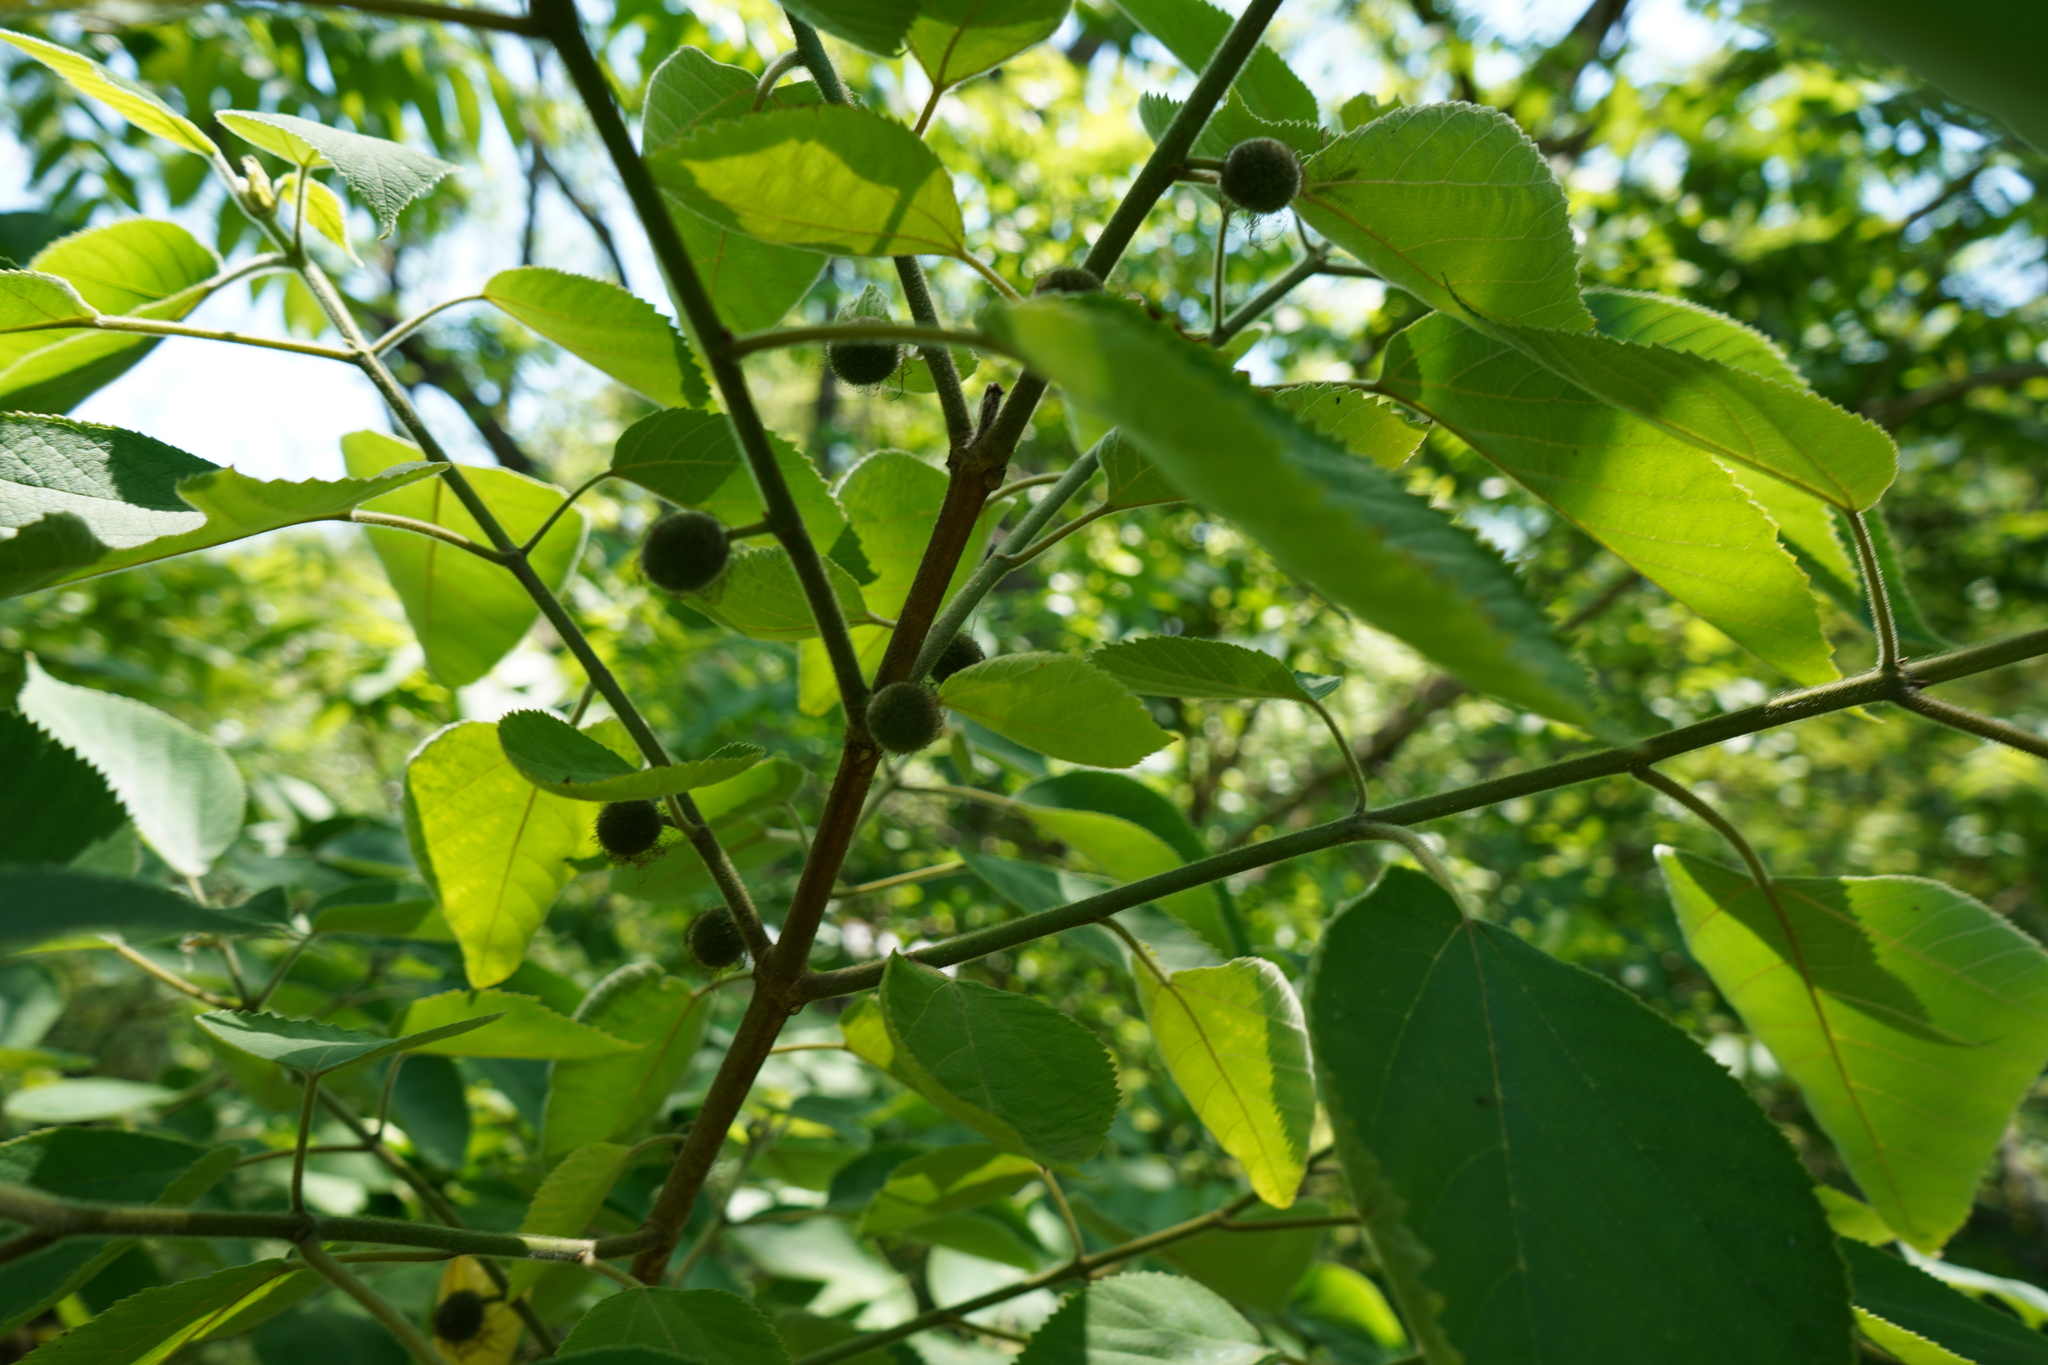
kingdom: Plantae
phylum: Tracheophyta
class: Magnoliopsida
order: Rosales
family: Moraceae
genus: Broussonetia
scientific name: Broussonetia papyrifera
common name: Paper mulberry
